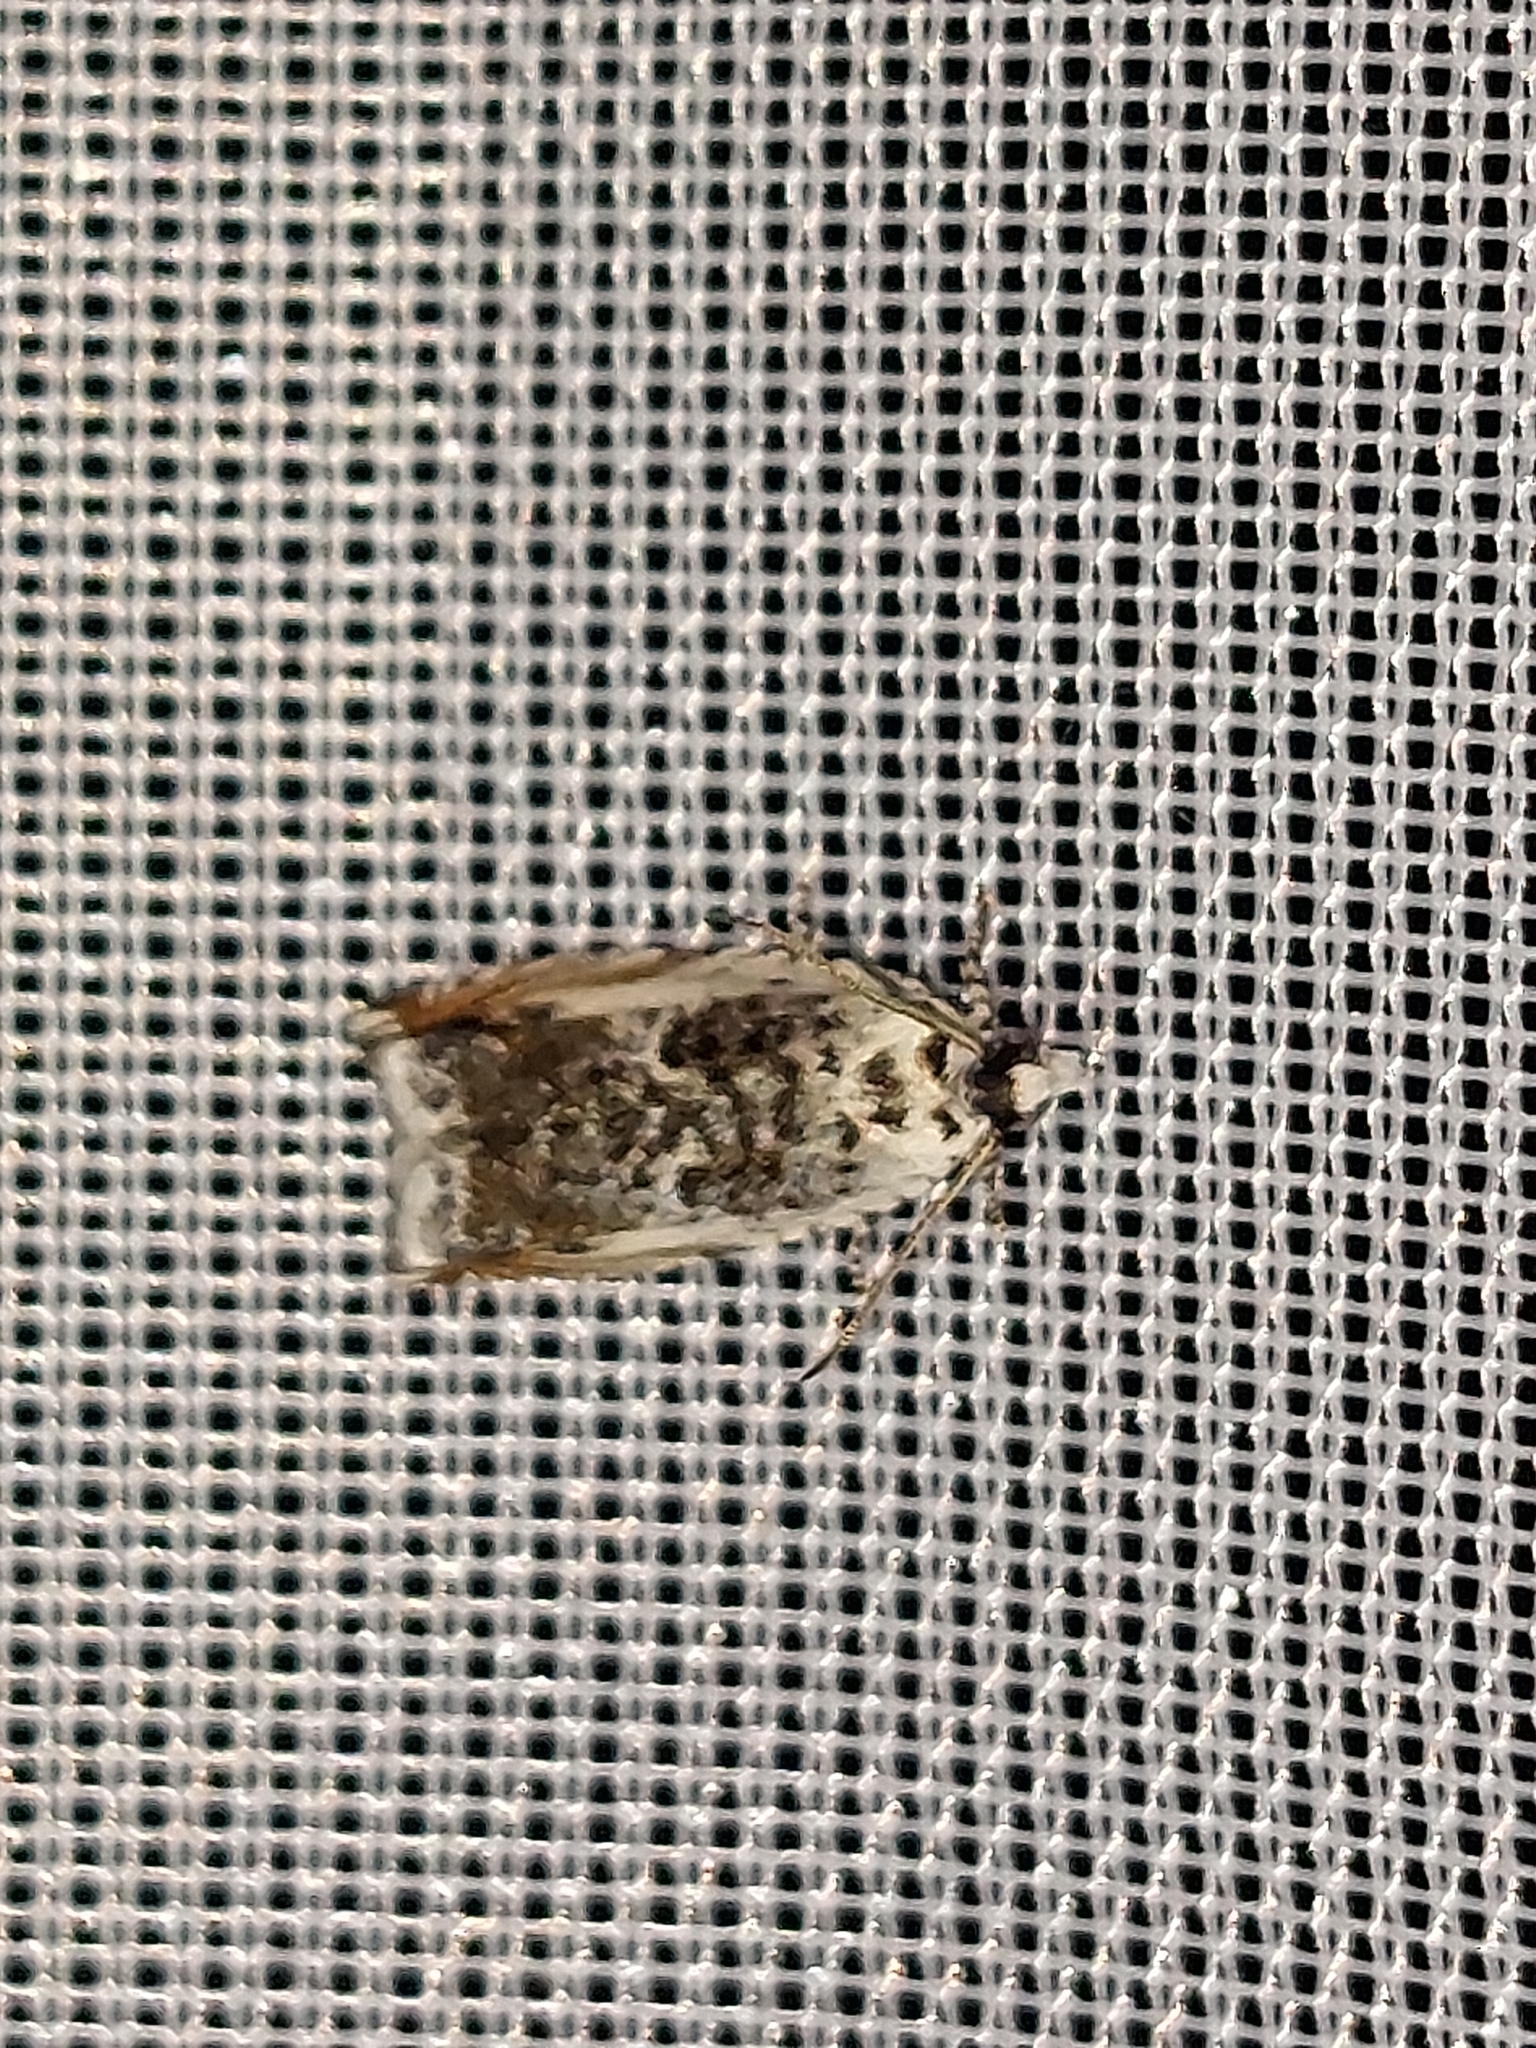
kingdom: Animalia
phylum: Arthropoda
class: Insecta
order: Lepidoptera
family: Tortricidae
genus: Ancylis
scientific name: Ancylis laetana
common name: Aspen roller
